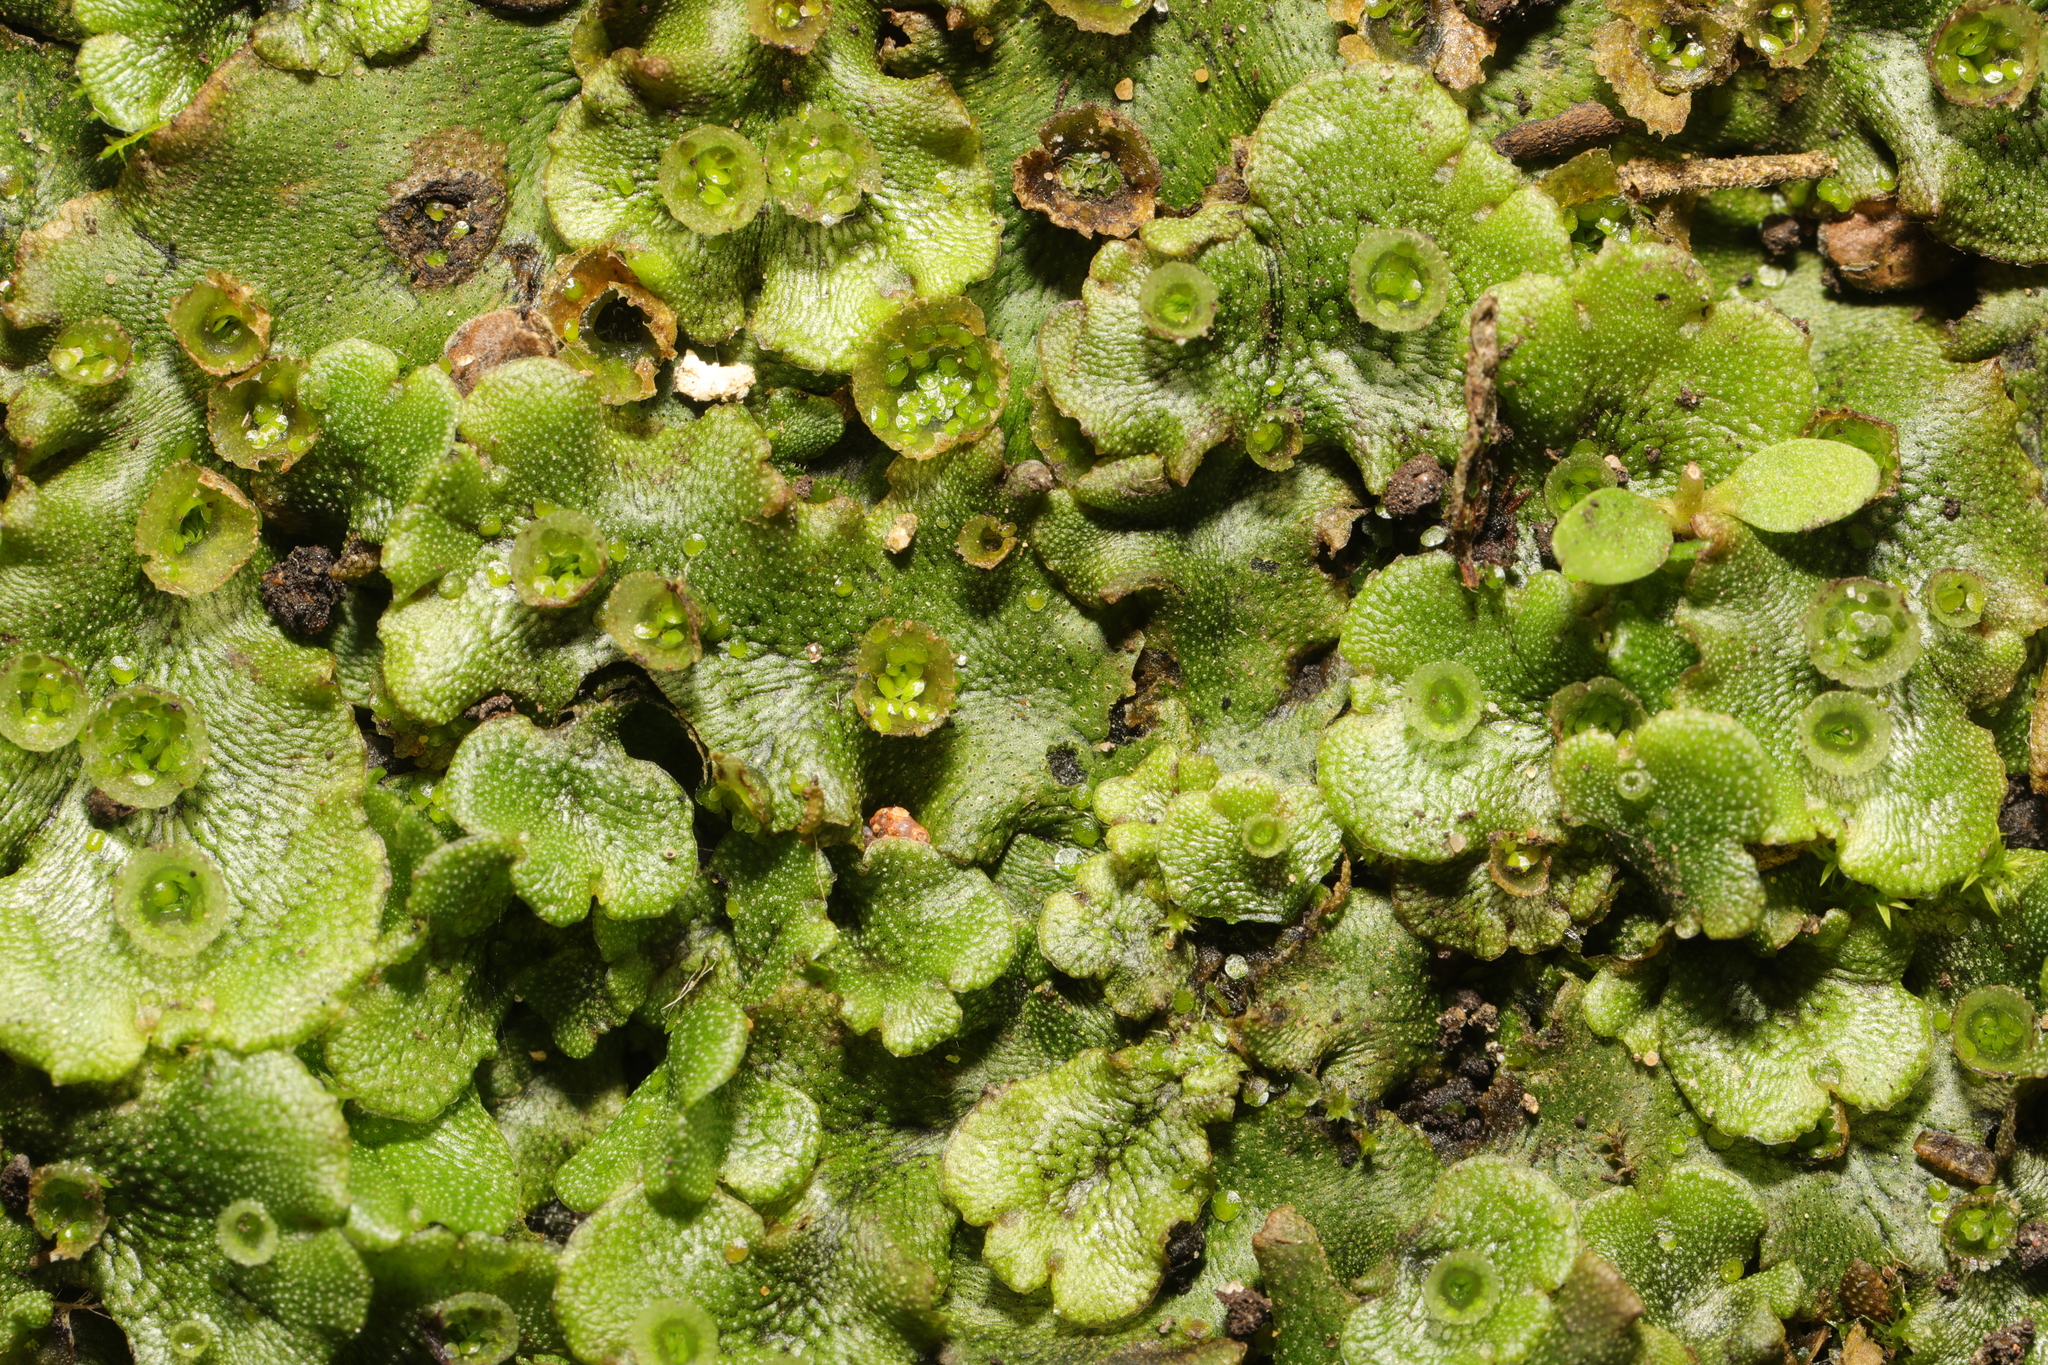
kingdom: Plantae
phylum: Marchantiophyta
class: Marchantiopsida
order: Marchantiales
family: Marchantiaceae
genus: Marchantia
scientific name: Marchantia polymorpha
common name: Common liverwort
